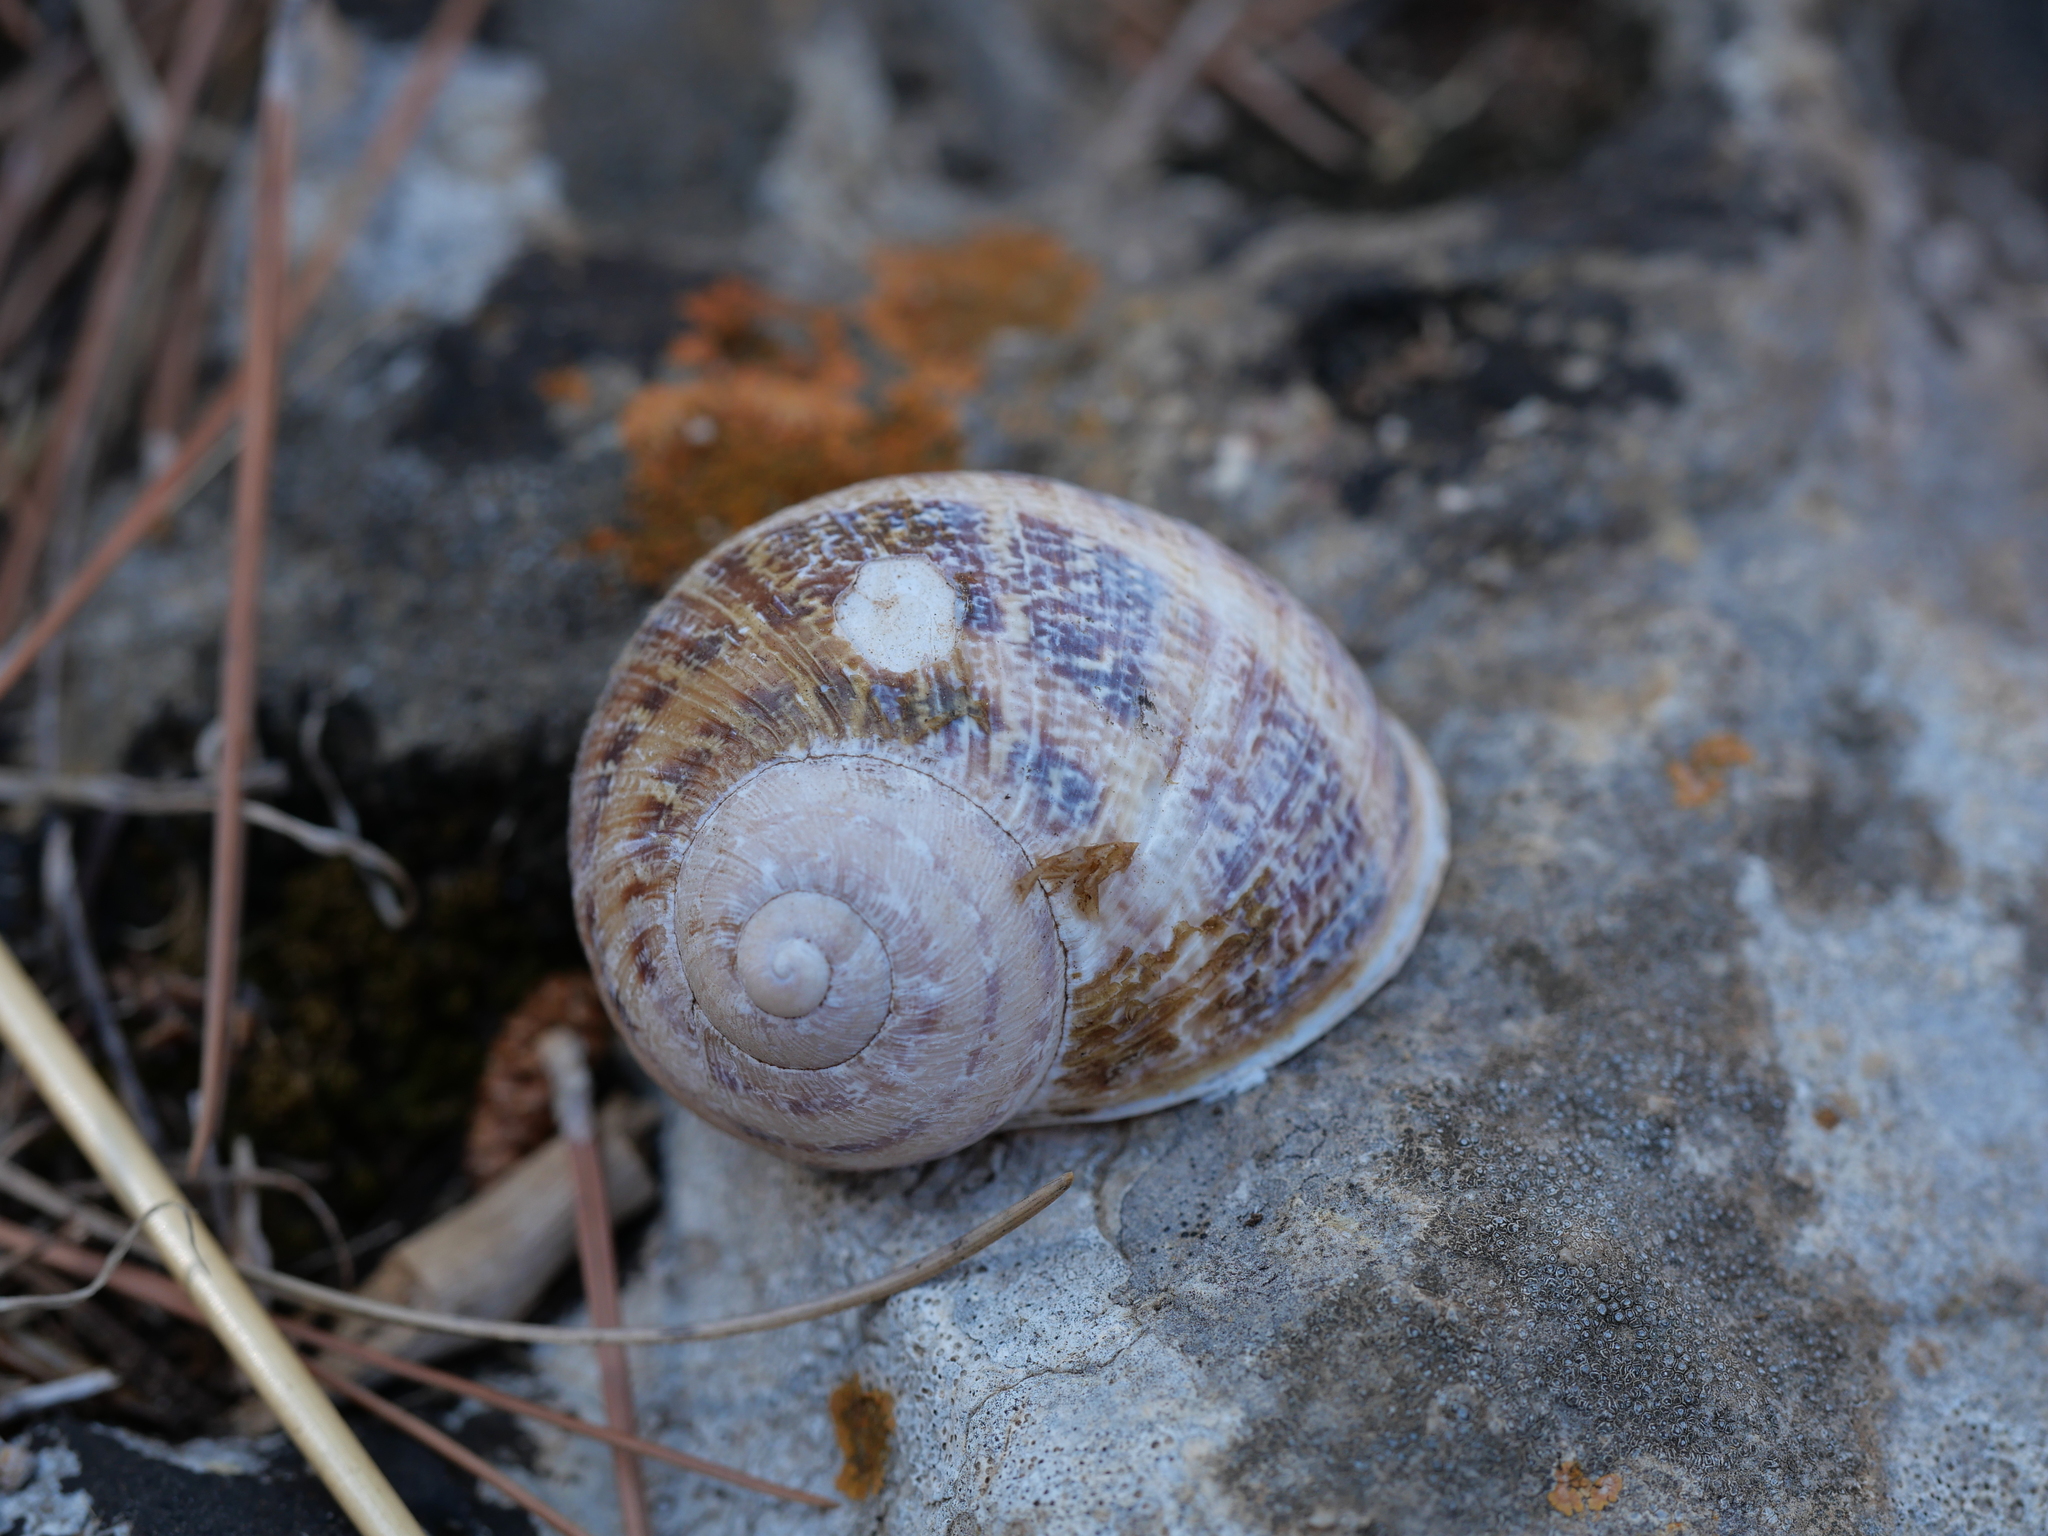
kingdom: Animalia
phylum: Mollusca
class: Gastropoda
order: Stylommatophora
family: Helicidae
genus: Cornu
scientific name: Cornu aspersum
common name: Brown garden snail
